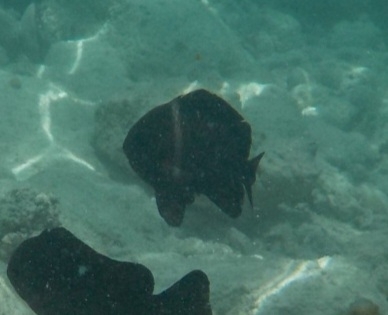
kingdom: Animalia
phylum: Chordata
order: Perciformes
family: Pomacentridae
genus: Dascyllus
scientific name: Dascyllus trimaculatus
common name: Threespot dascyllus
